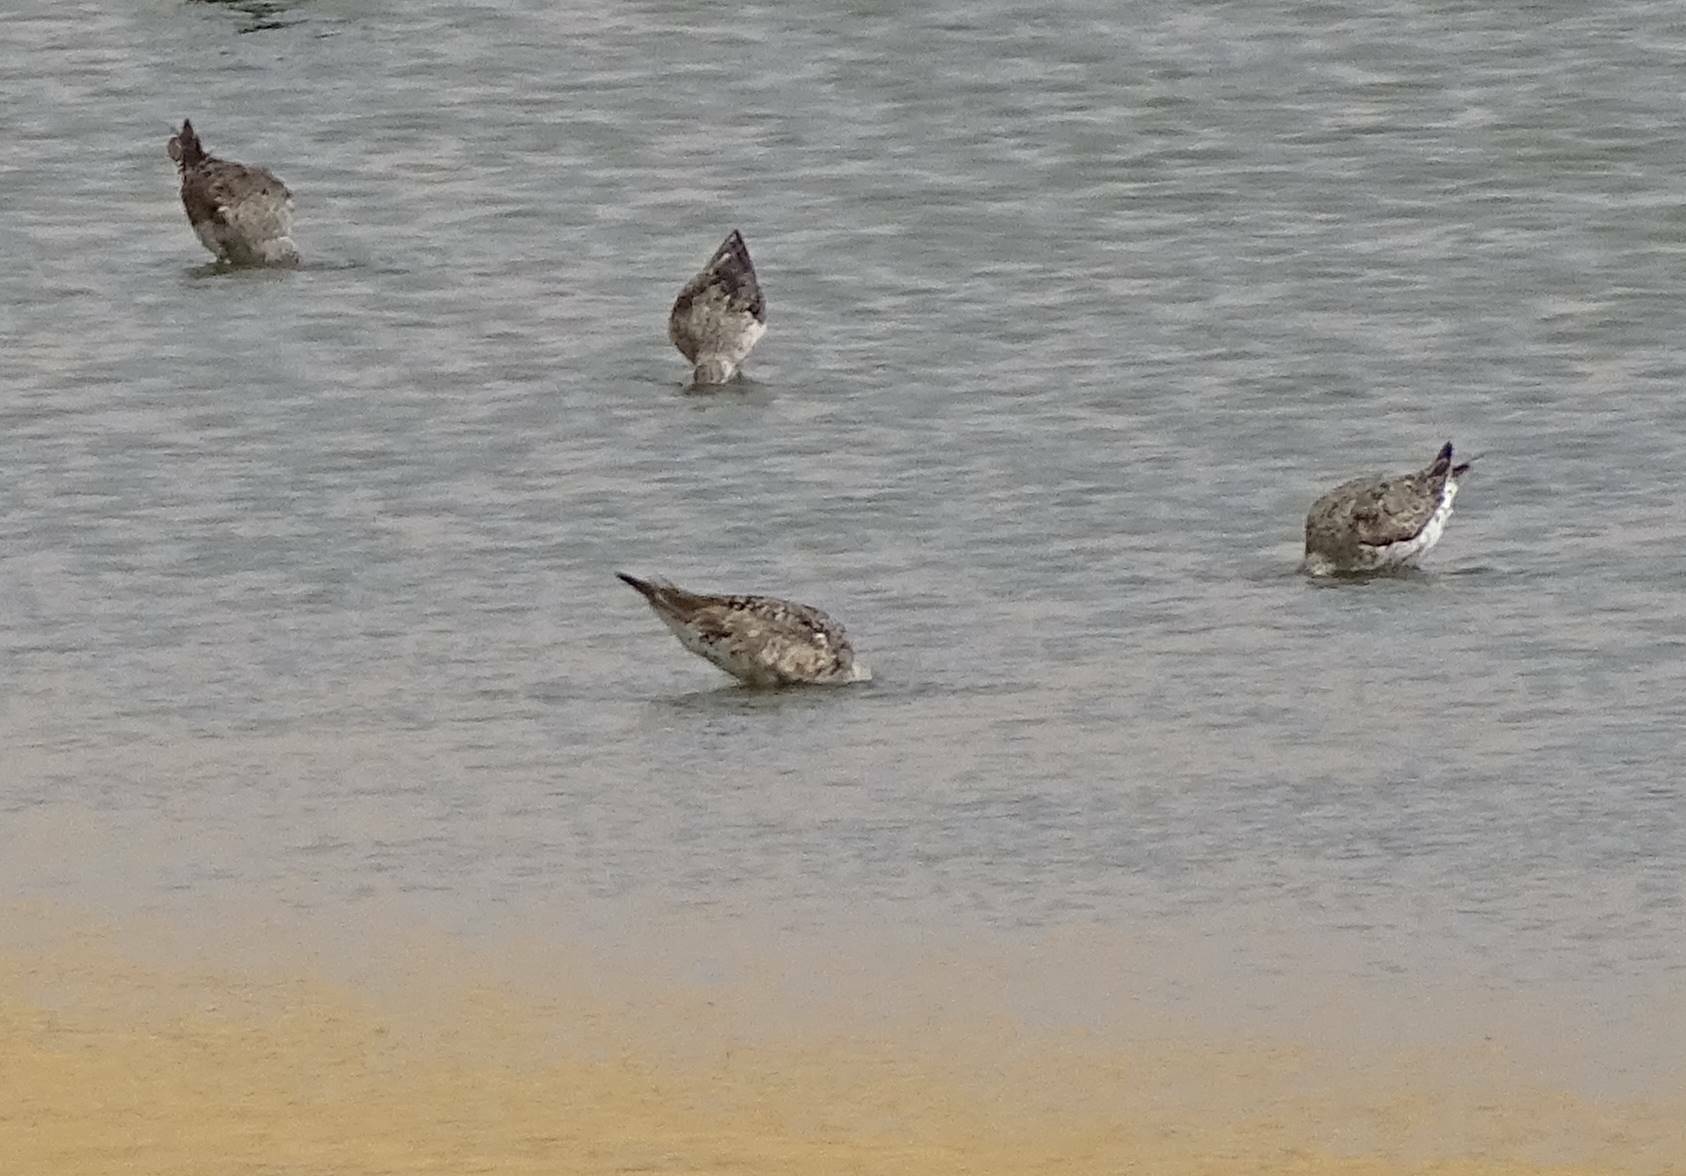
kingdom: Animalia
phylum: Chordata
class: Aves
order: Charadriiformes
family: Scolopacidae
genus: Calidris
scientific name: Calidris ferruginea
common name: Curlew sandpiper
